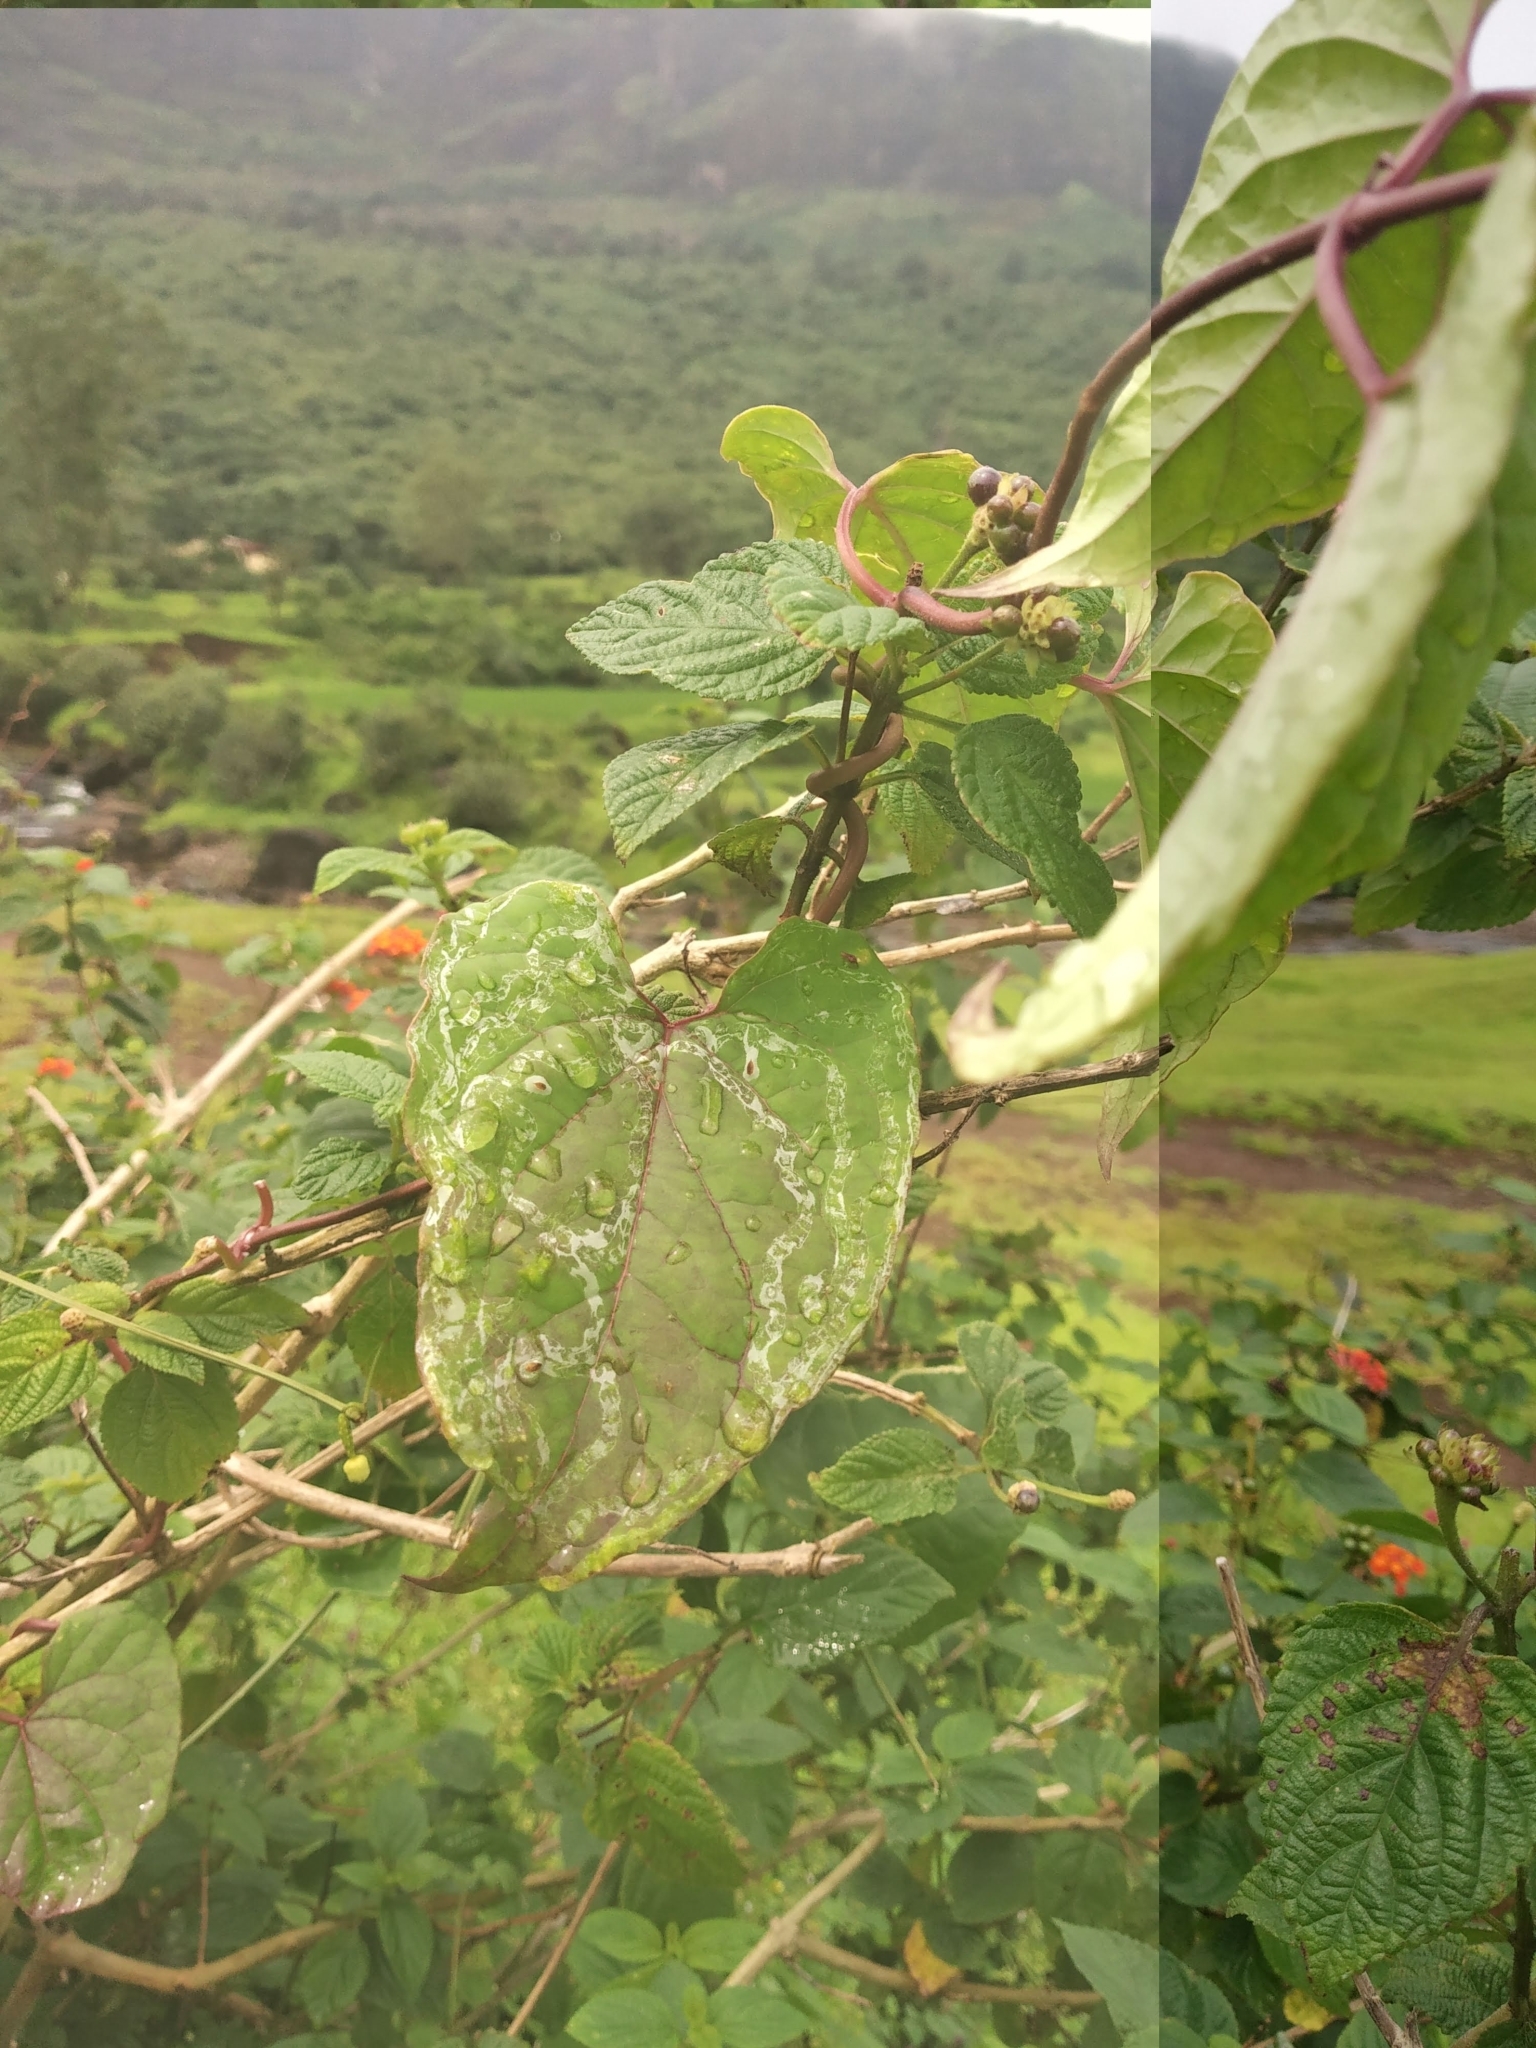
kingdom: Plantae
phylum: Tracheophyta
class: Magnoliopsida
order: Gentianales
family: Apocynaceae
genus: Cynanchum
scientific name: Cynanchum sahyadricum
